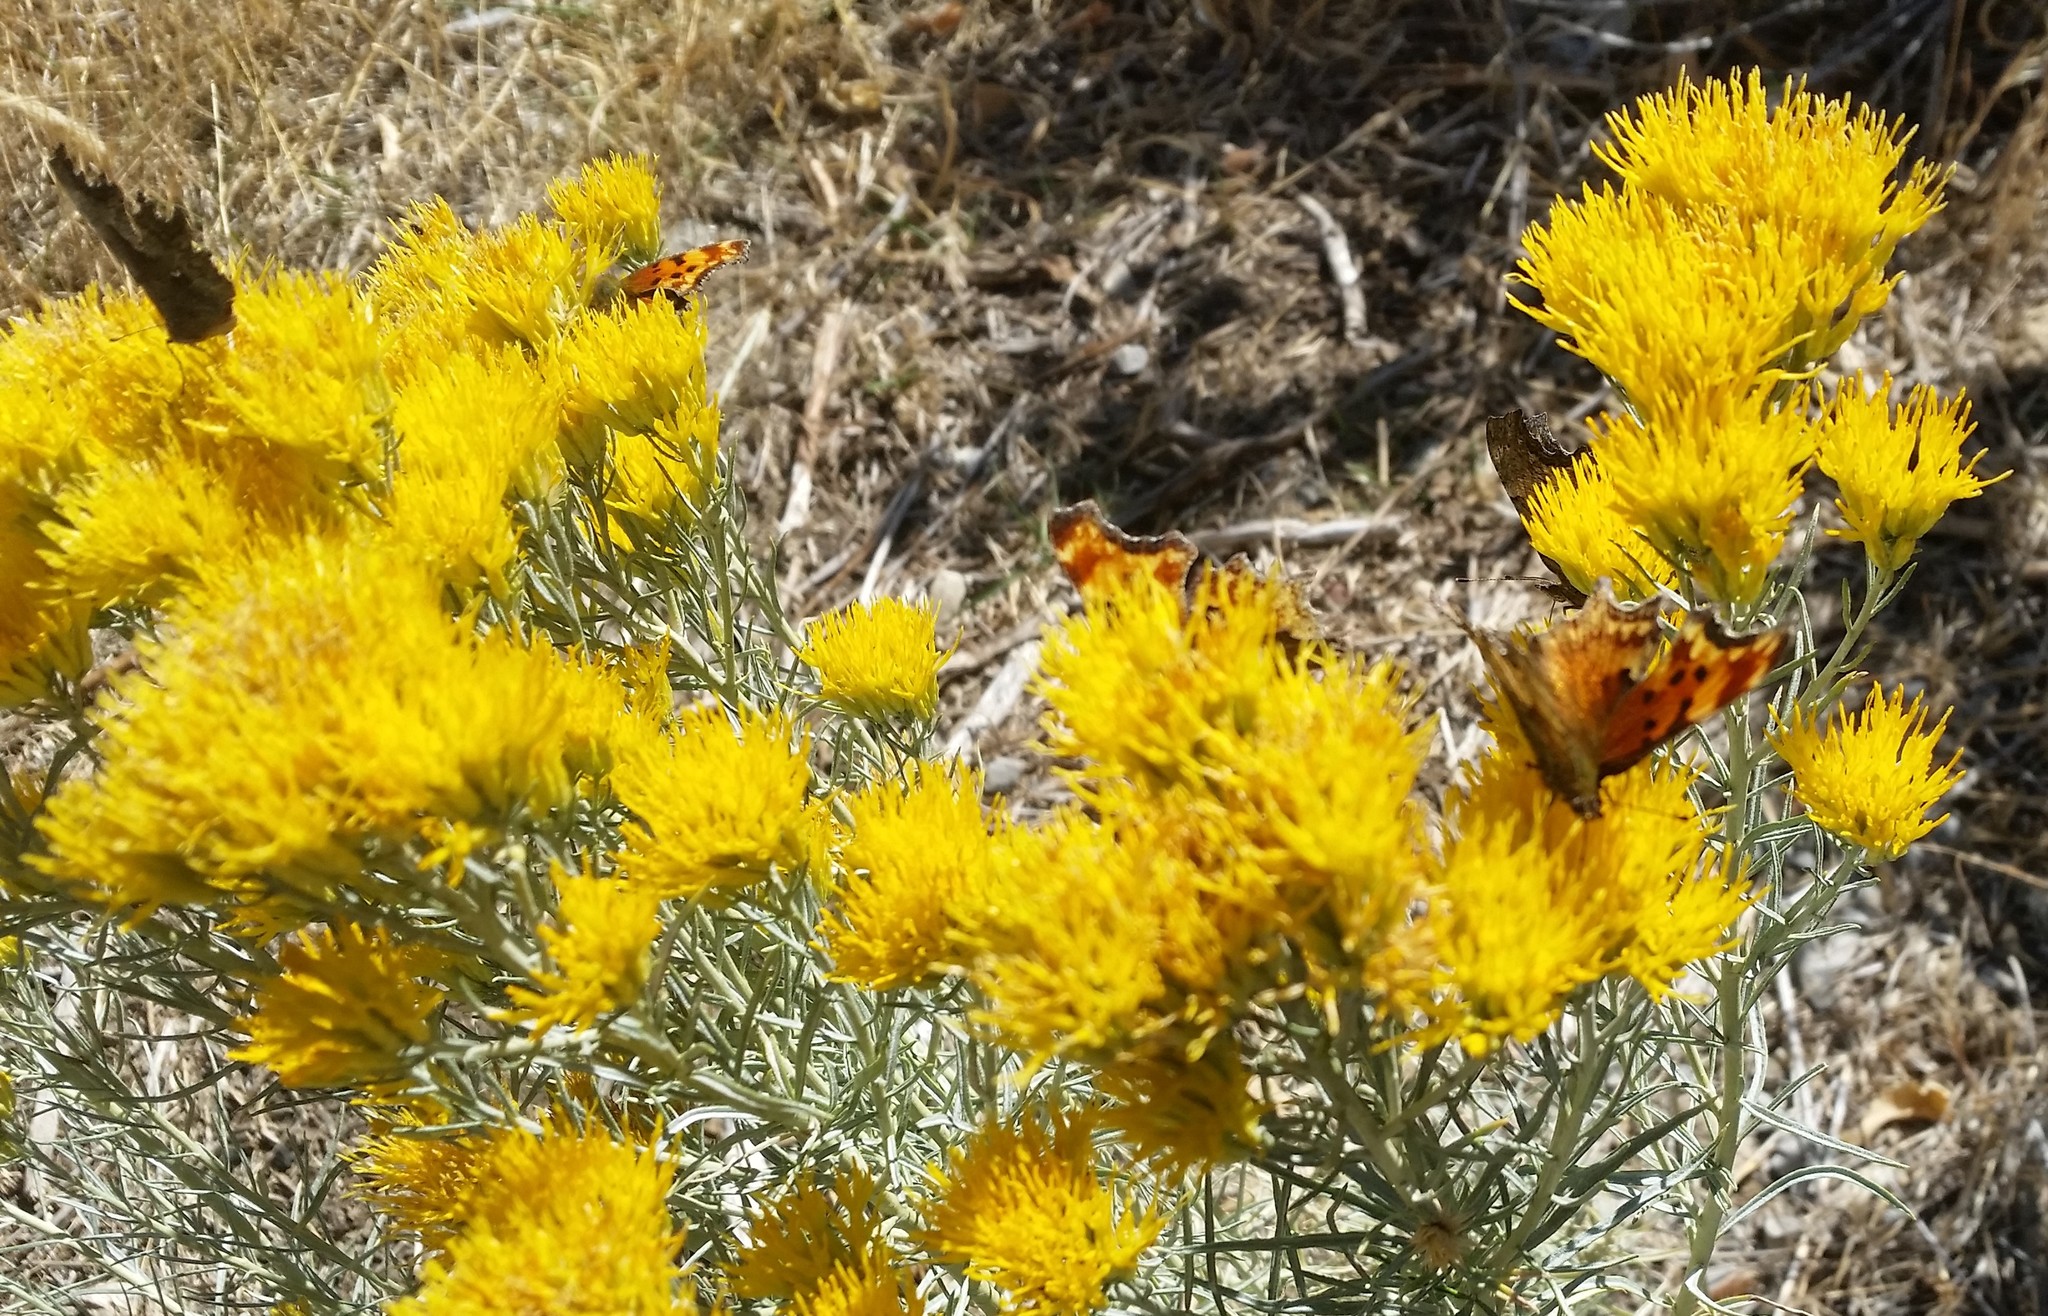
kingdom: Animalia
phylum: Arthropoda
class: Insecta
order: Lepidoptera
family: Nymphalidae
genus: Polygonia
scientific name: Polygonia gracilis
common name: Hoary comma
